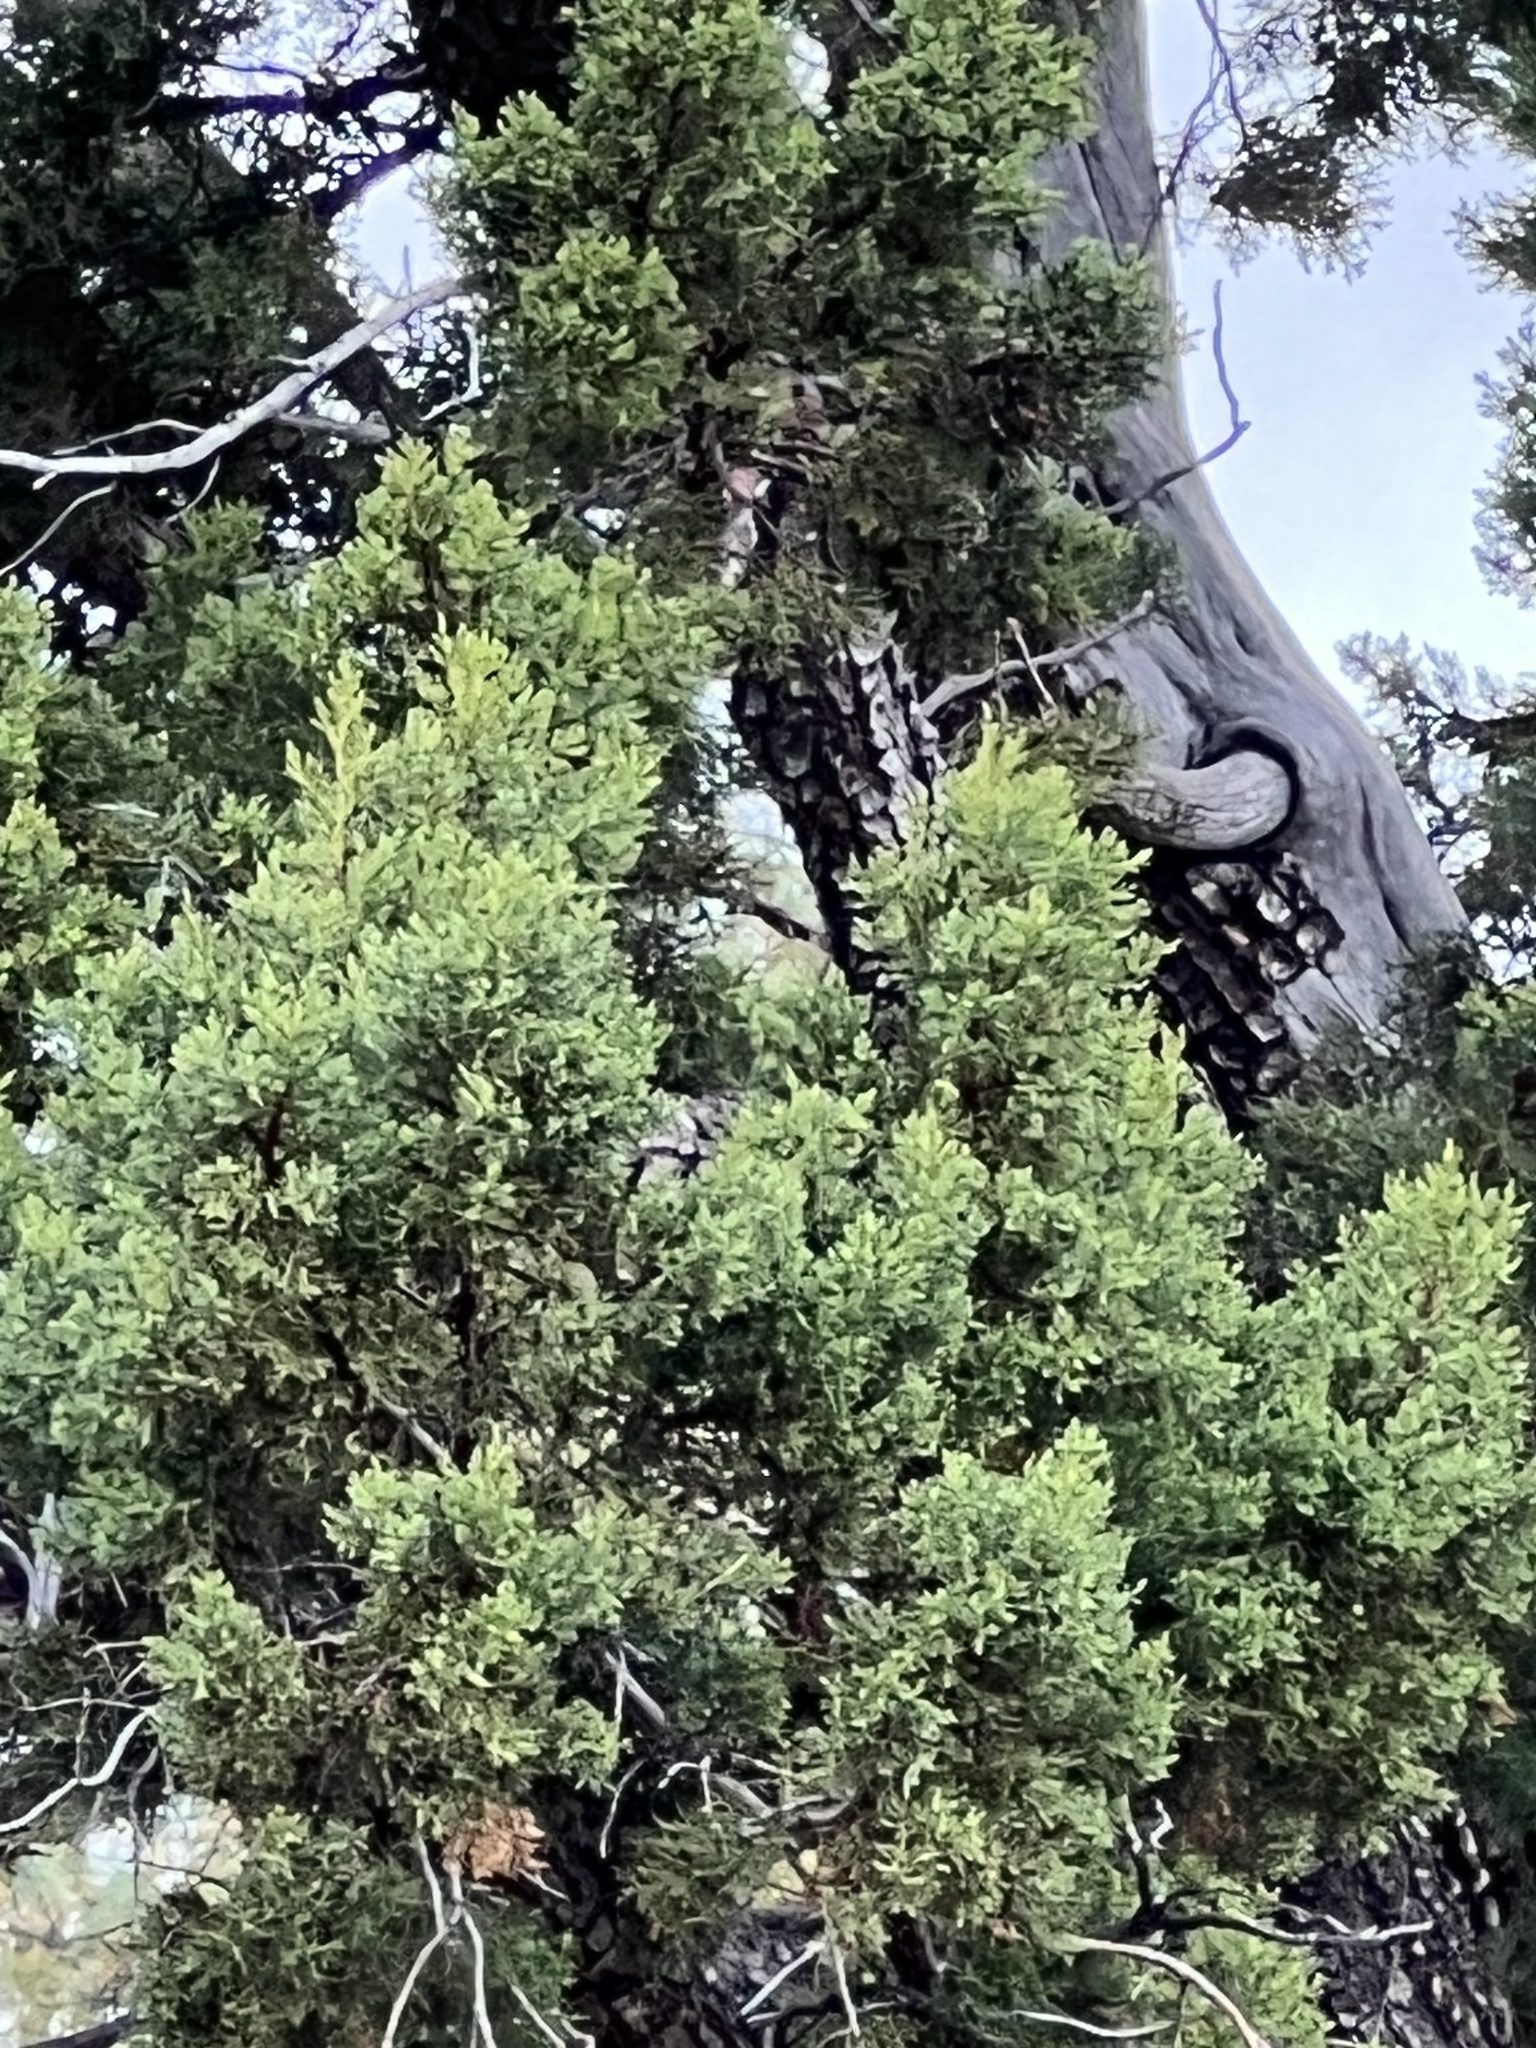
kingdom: Plantae
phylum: Tracheophyta
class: Pinopsida
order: Pinales
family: Cupressaceae
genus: Juniperus
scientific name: Juniperus deppeana
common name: Alligator juniper
